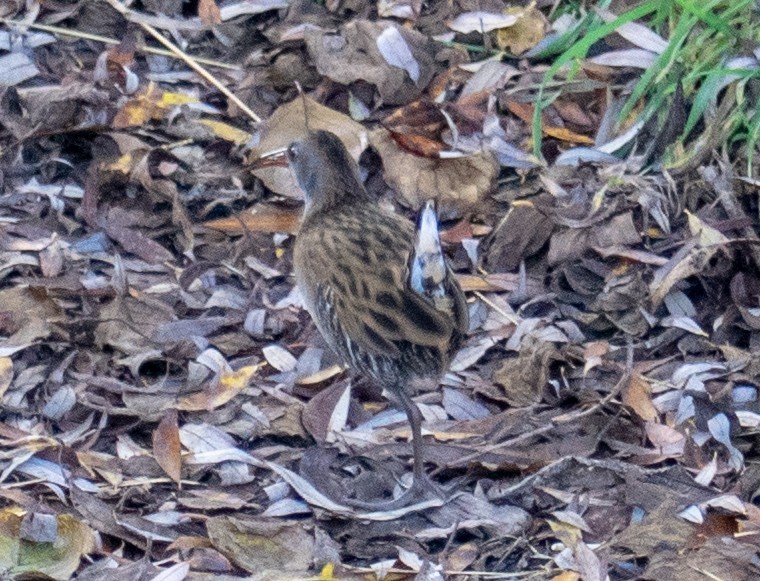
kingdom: Animalia
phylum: Chordata
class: Aves
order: Gruiformes
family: Rallidae
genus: Rallus
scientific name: Rallus aquaticus
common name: Water rail
